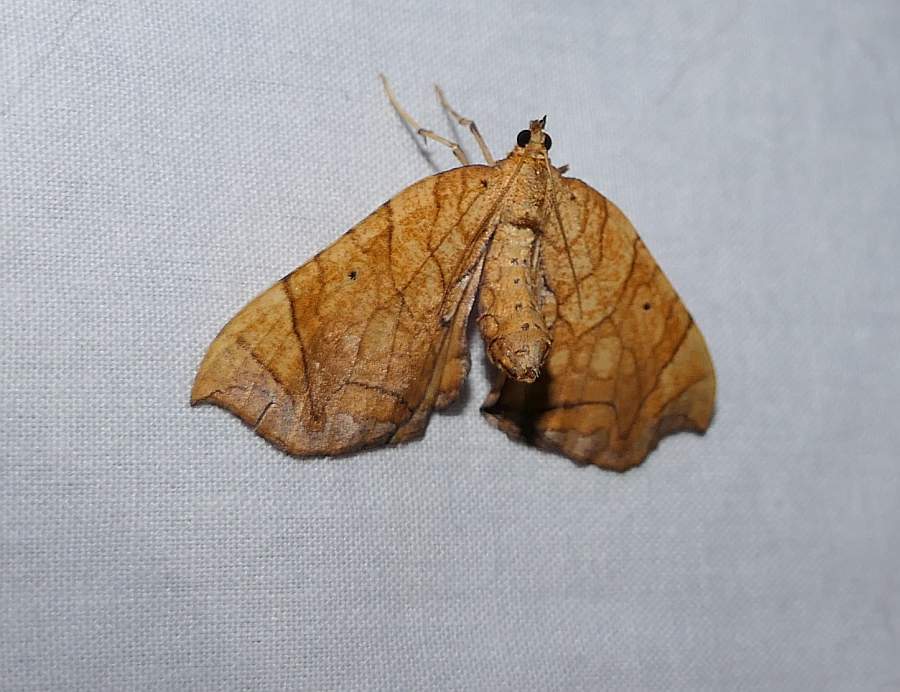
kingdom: Animalia
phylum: Arthropoda
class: Insecta
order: Lepidoptera
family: Geometridae
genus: Eulithis
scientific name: Eulithis
